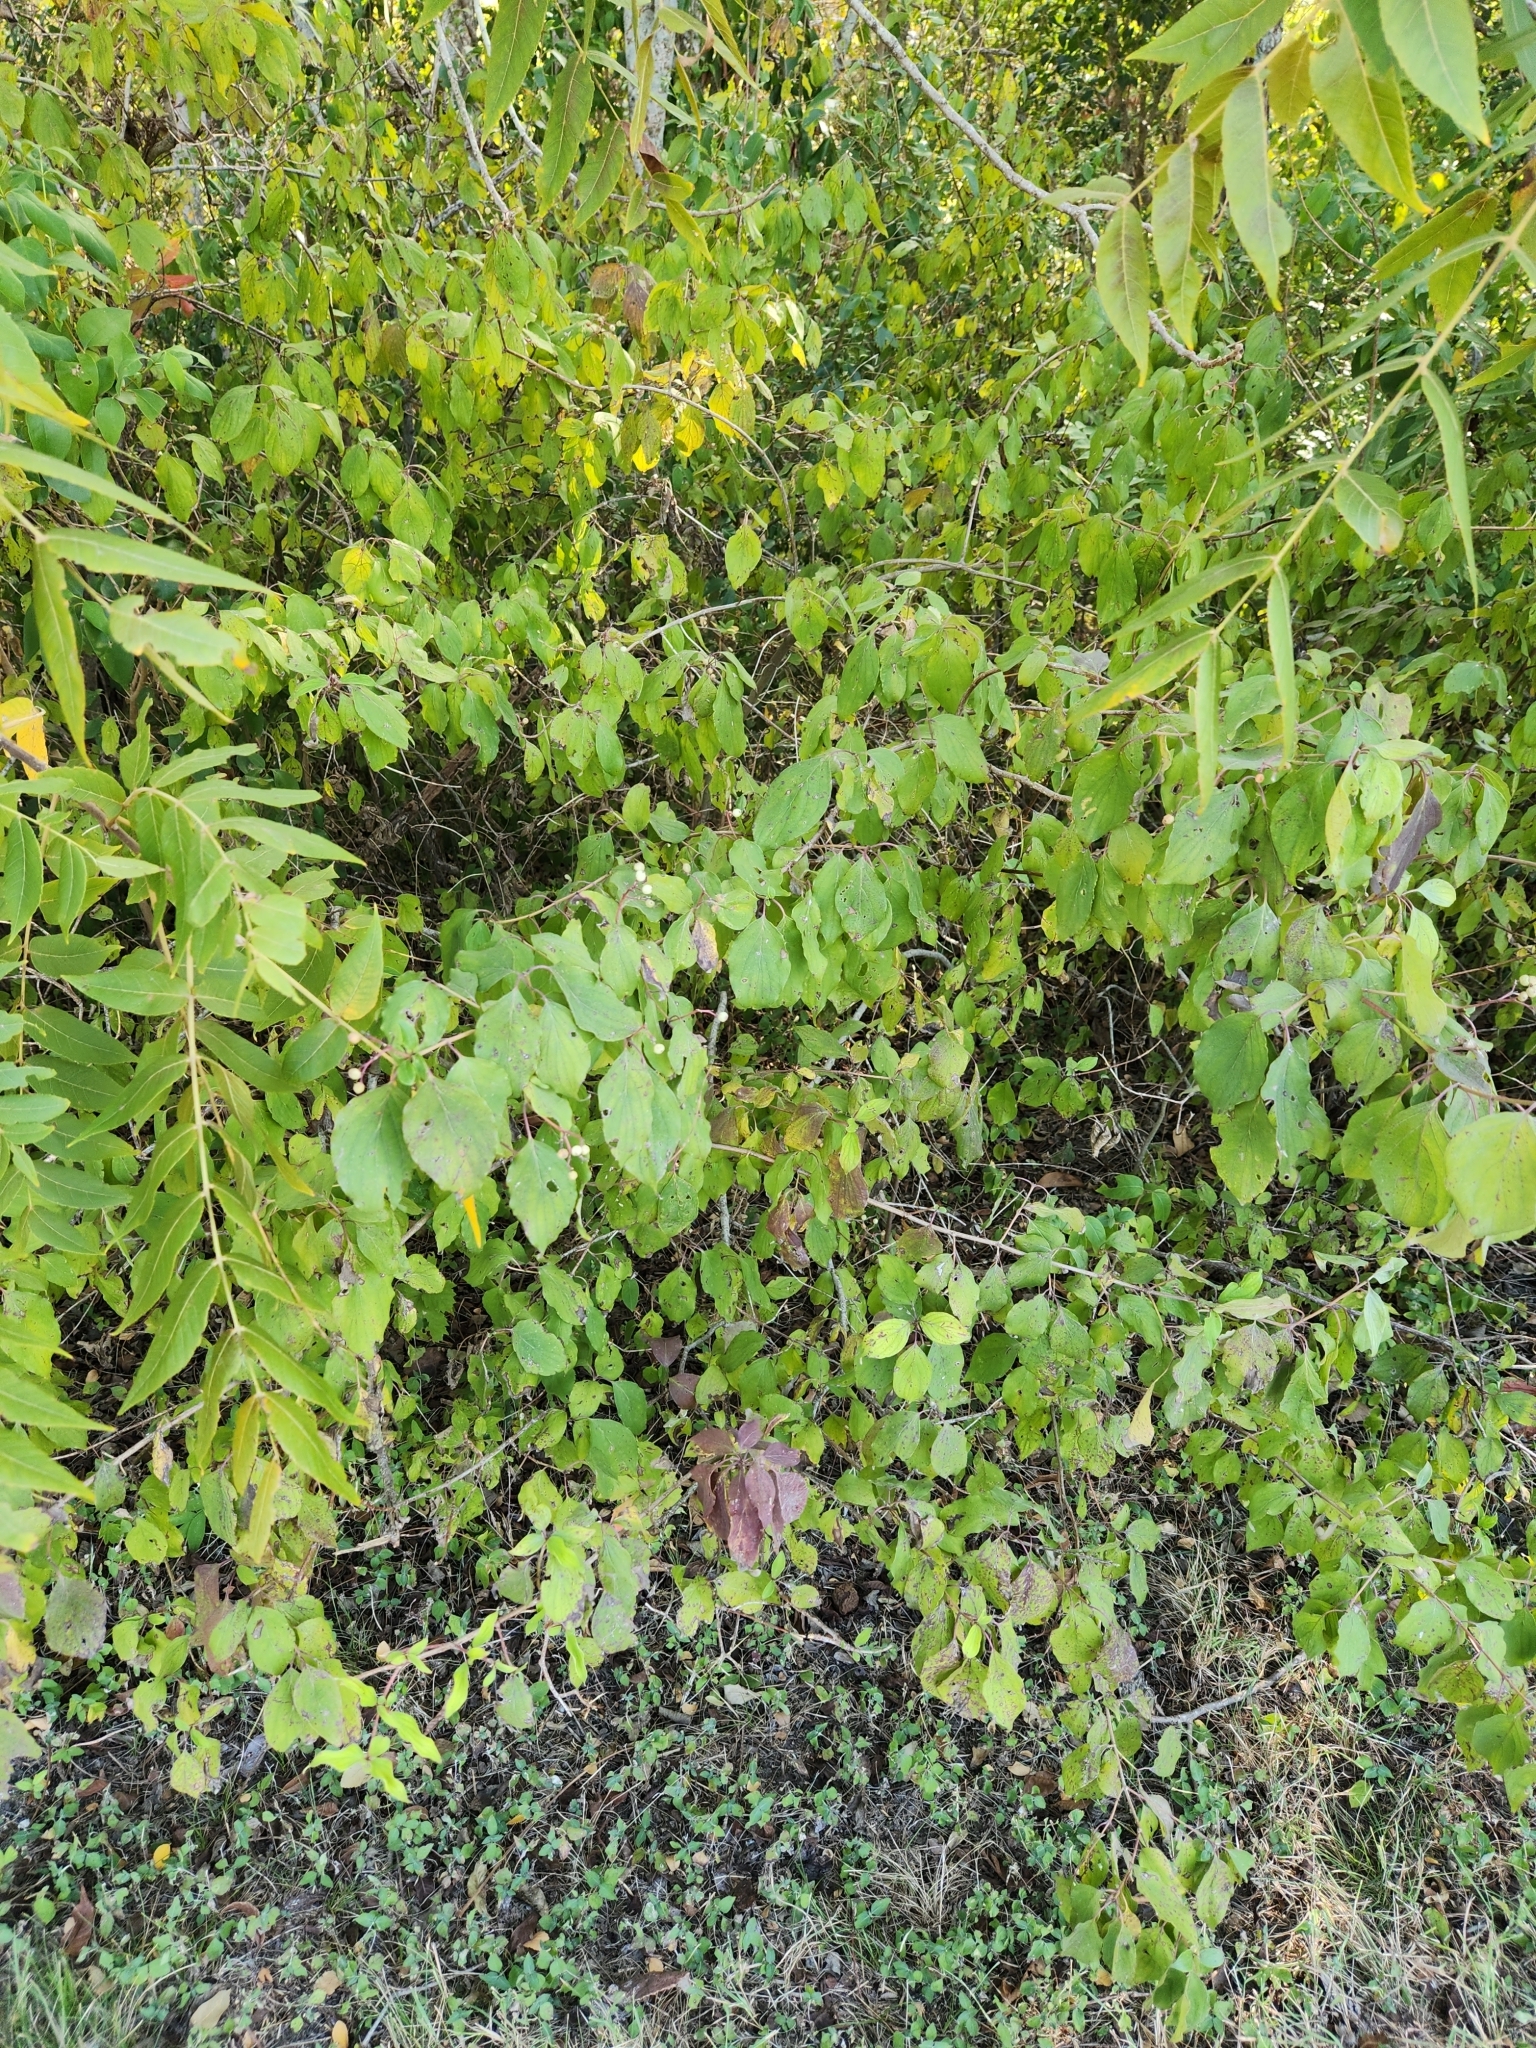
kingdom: Plantae
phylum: Tracheophyta
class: Magnoliopsida
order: Cornales
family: Cornaceae
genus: Cornus
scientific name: Cornus drummondii
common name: Rough-leaf dogwood
